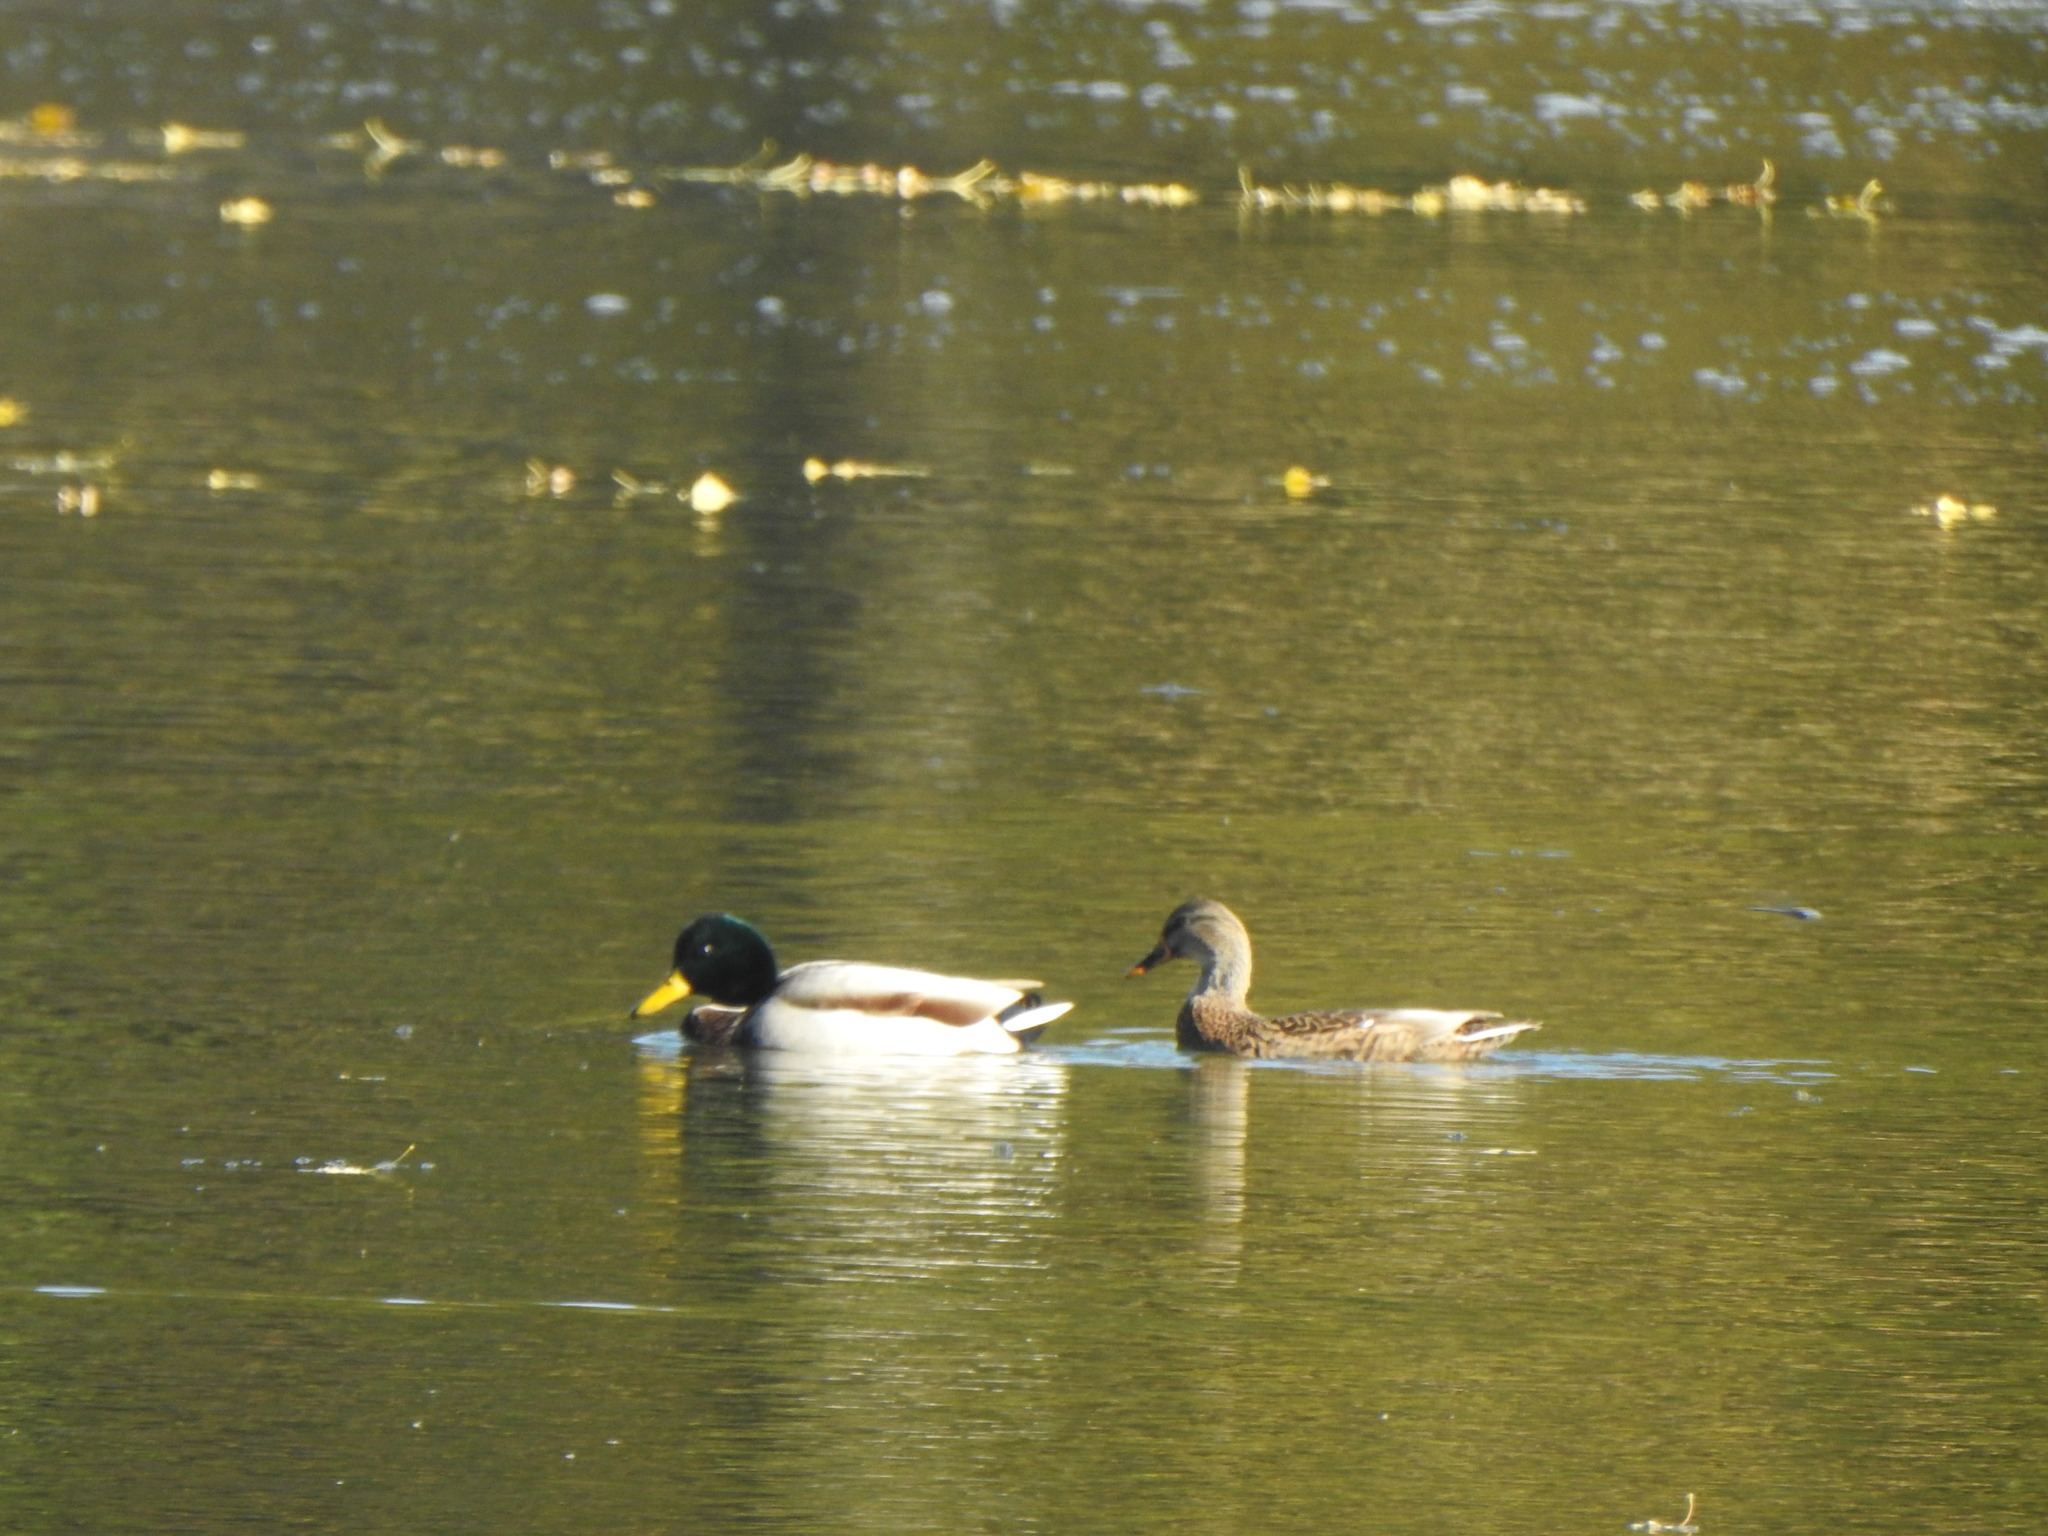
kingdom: Animalia
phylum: Chordata
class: Aves
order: Anseriformes
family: Anatidae
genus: Anas
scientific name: Anas platyrhynchos
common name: Mallard
